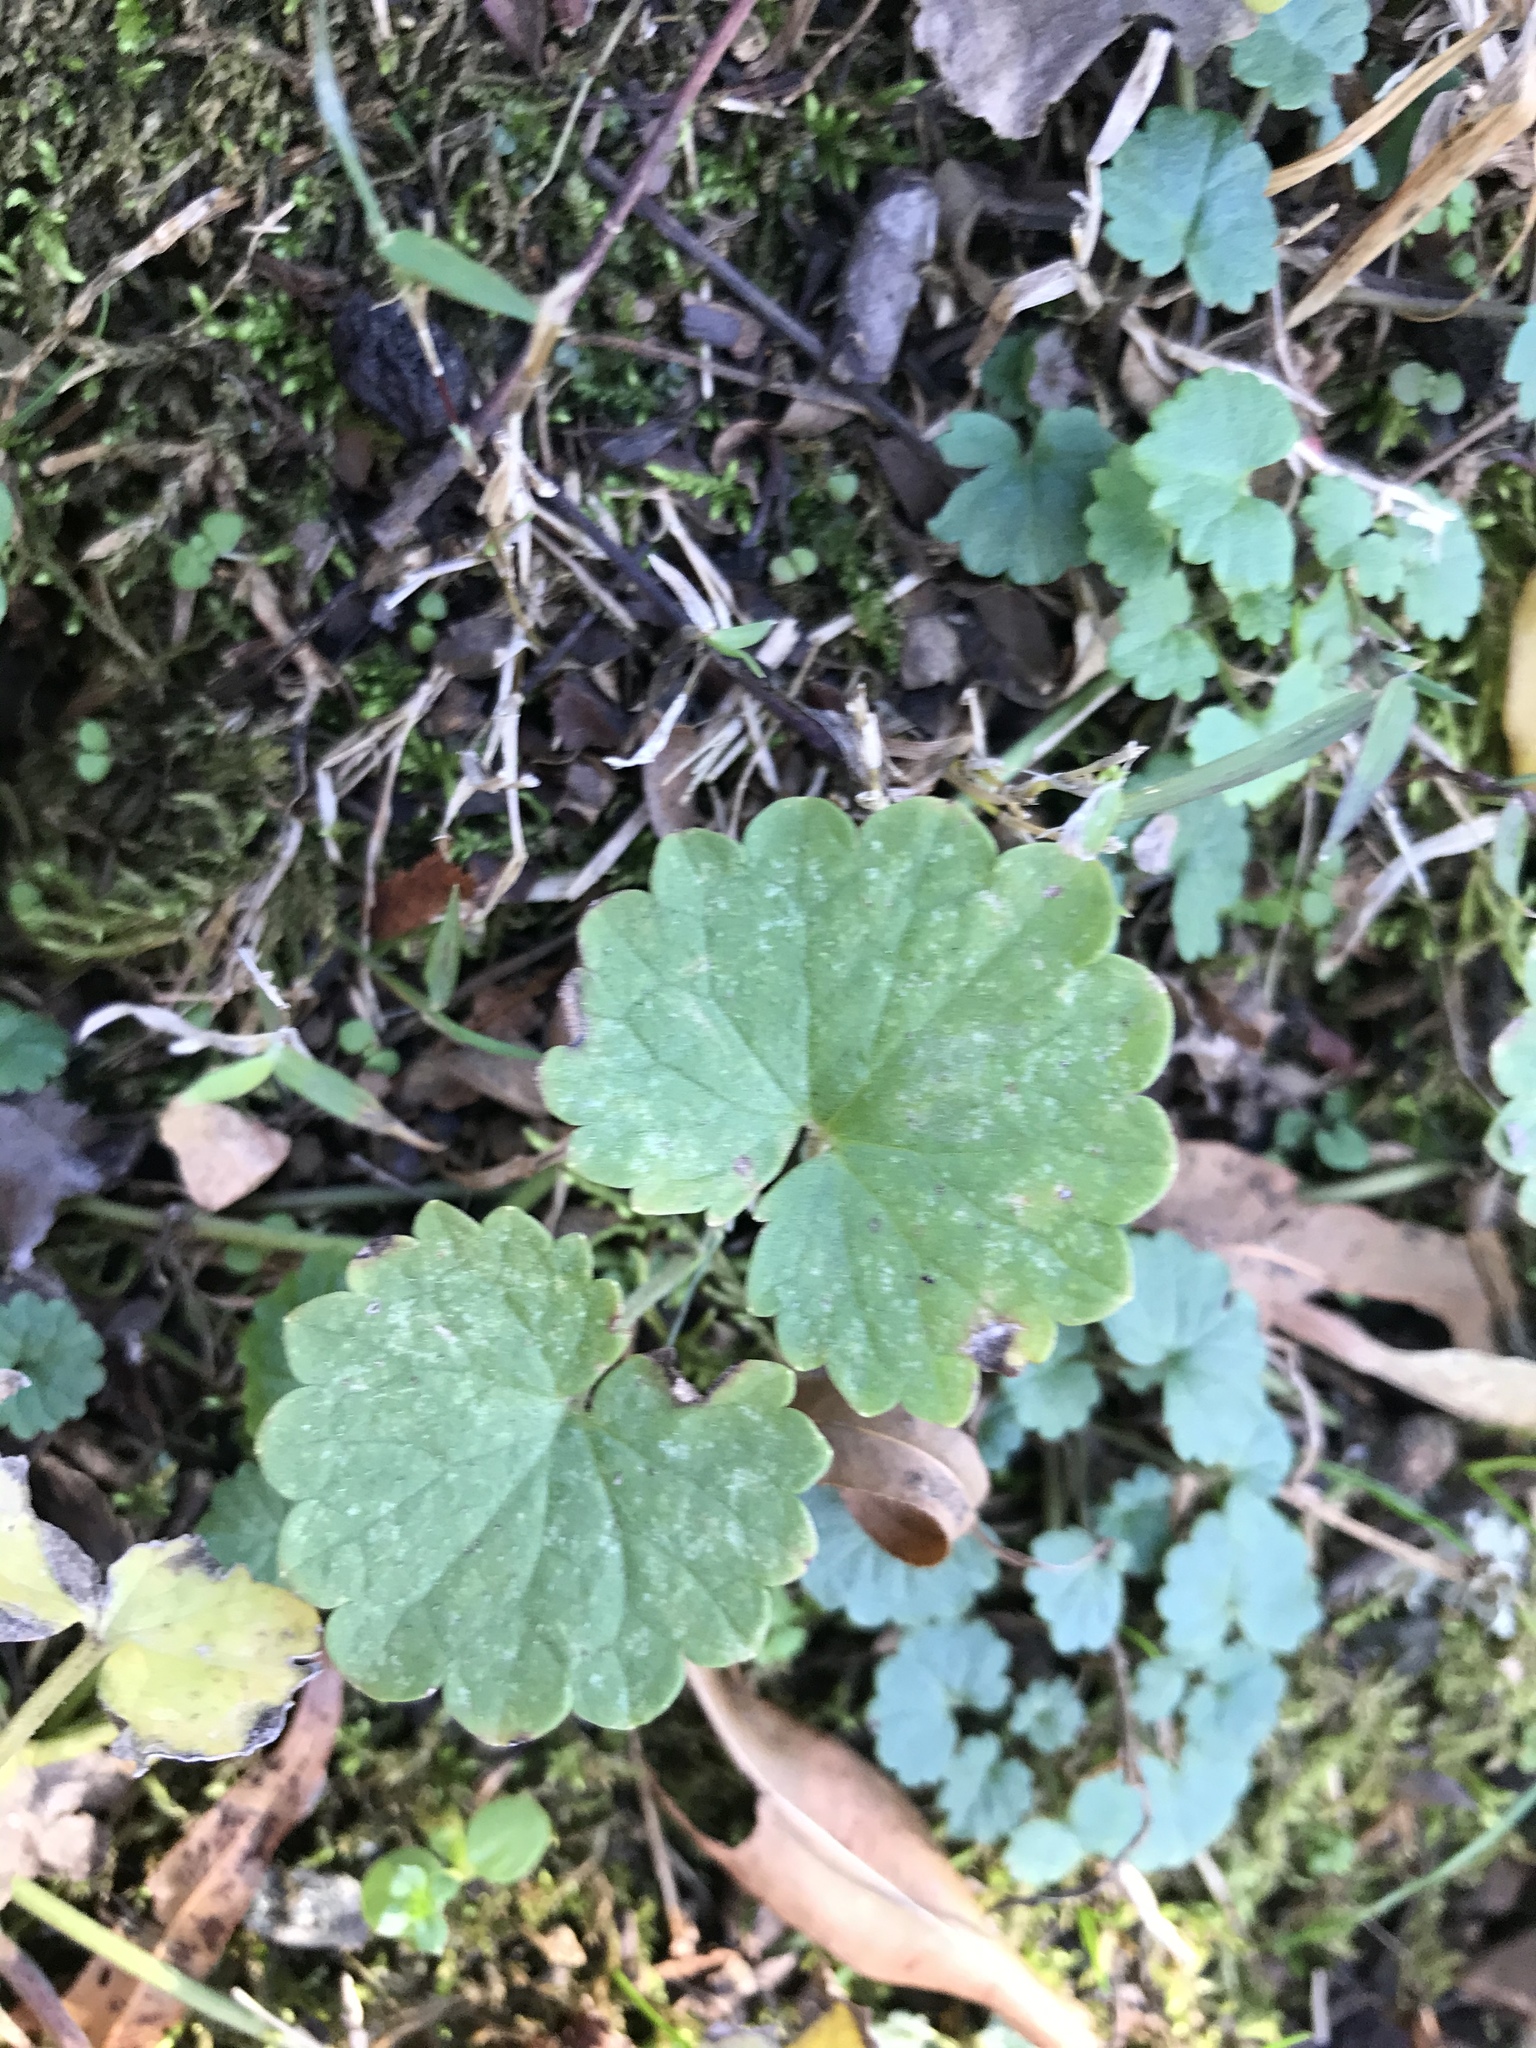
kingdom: Plantae
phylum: Tracheophyta
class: Magnoliopsida
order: Lamiales
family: Lamiaceae
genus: Glechoma
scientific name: Glechoma hederacea
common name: Ground ivy
